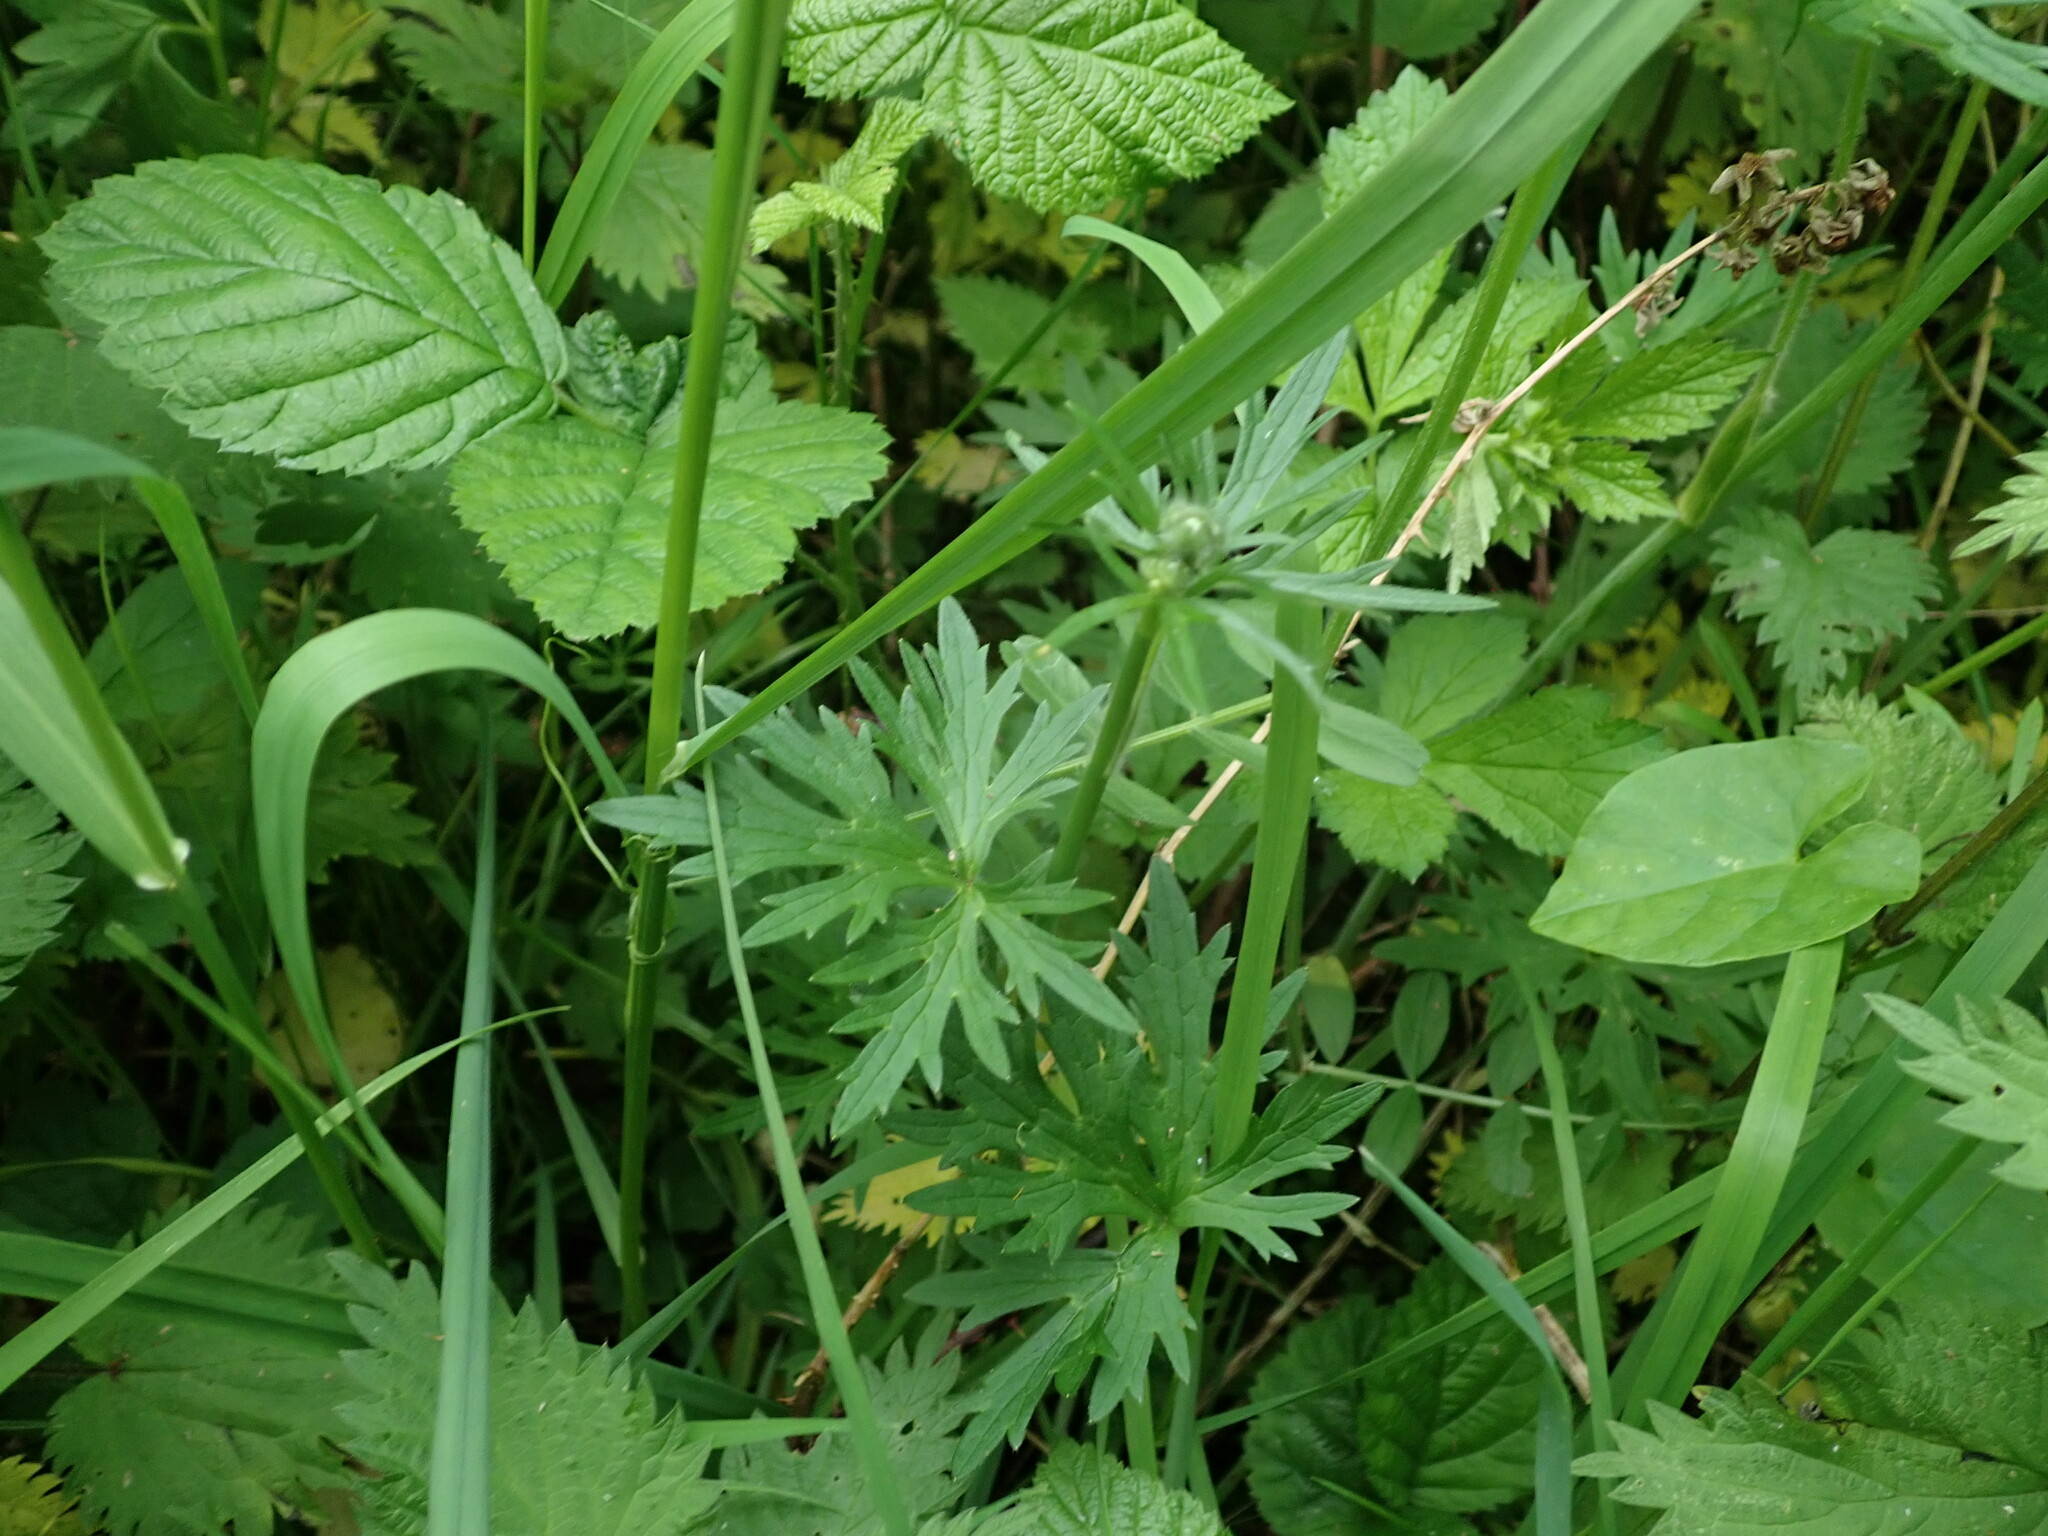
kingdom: Plantae
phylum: Tracheophyta
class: Magnoliopsida
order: Ranunculales
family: Ranunculaceae
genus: Ranunculus
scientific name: Ranunculus acris
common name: Meadow buttercup
